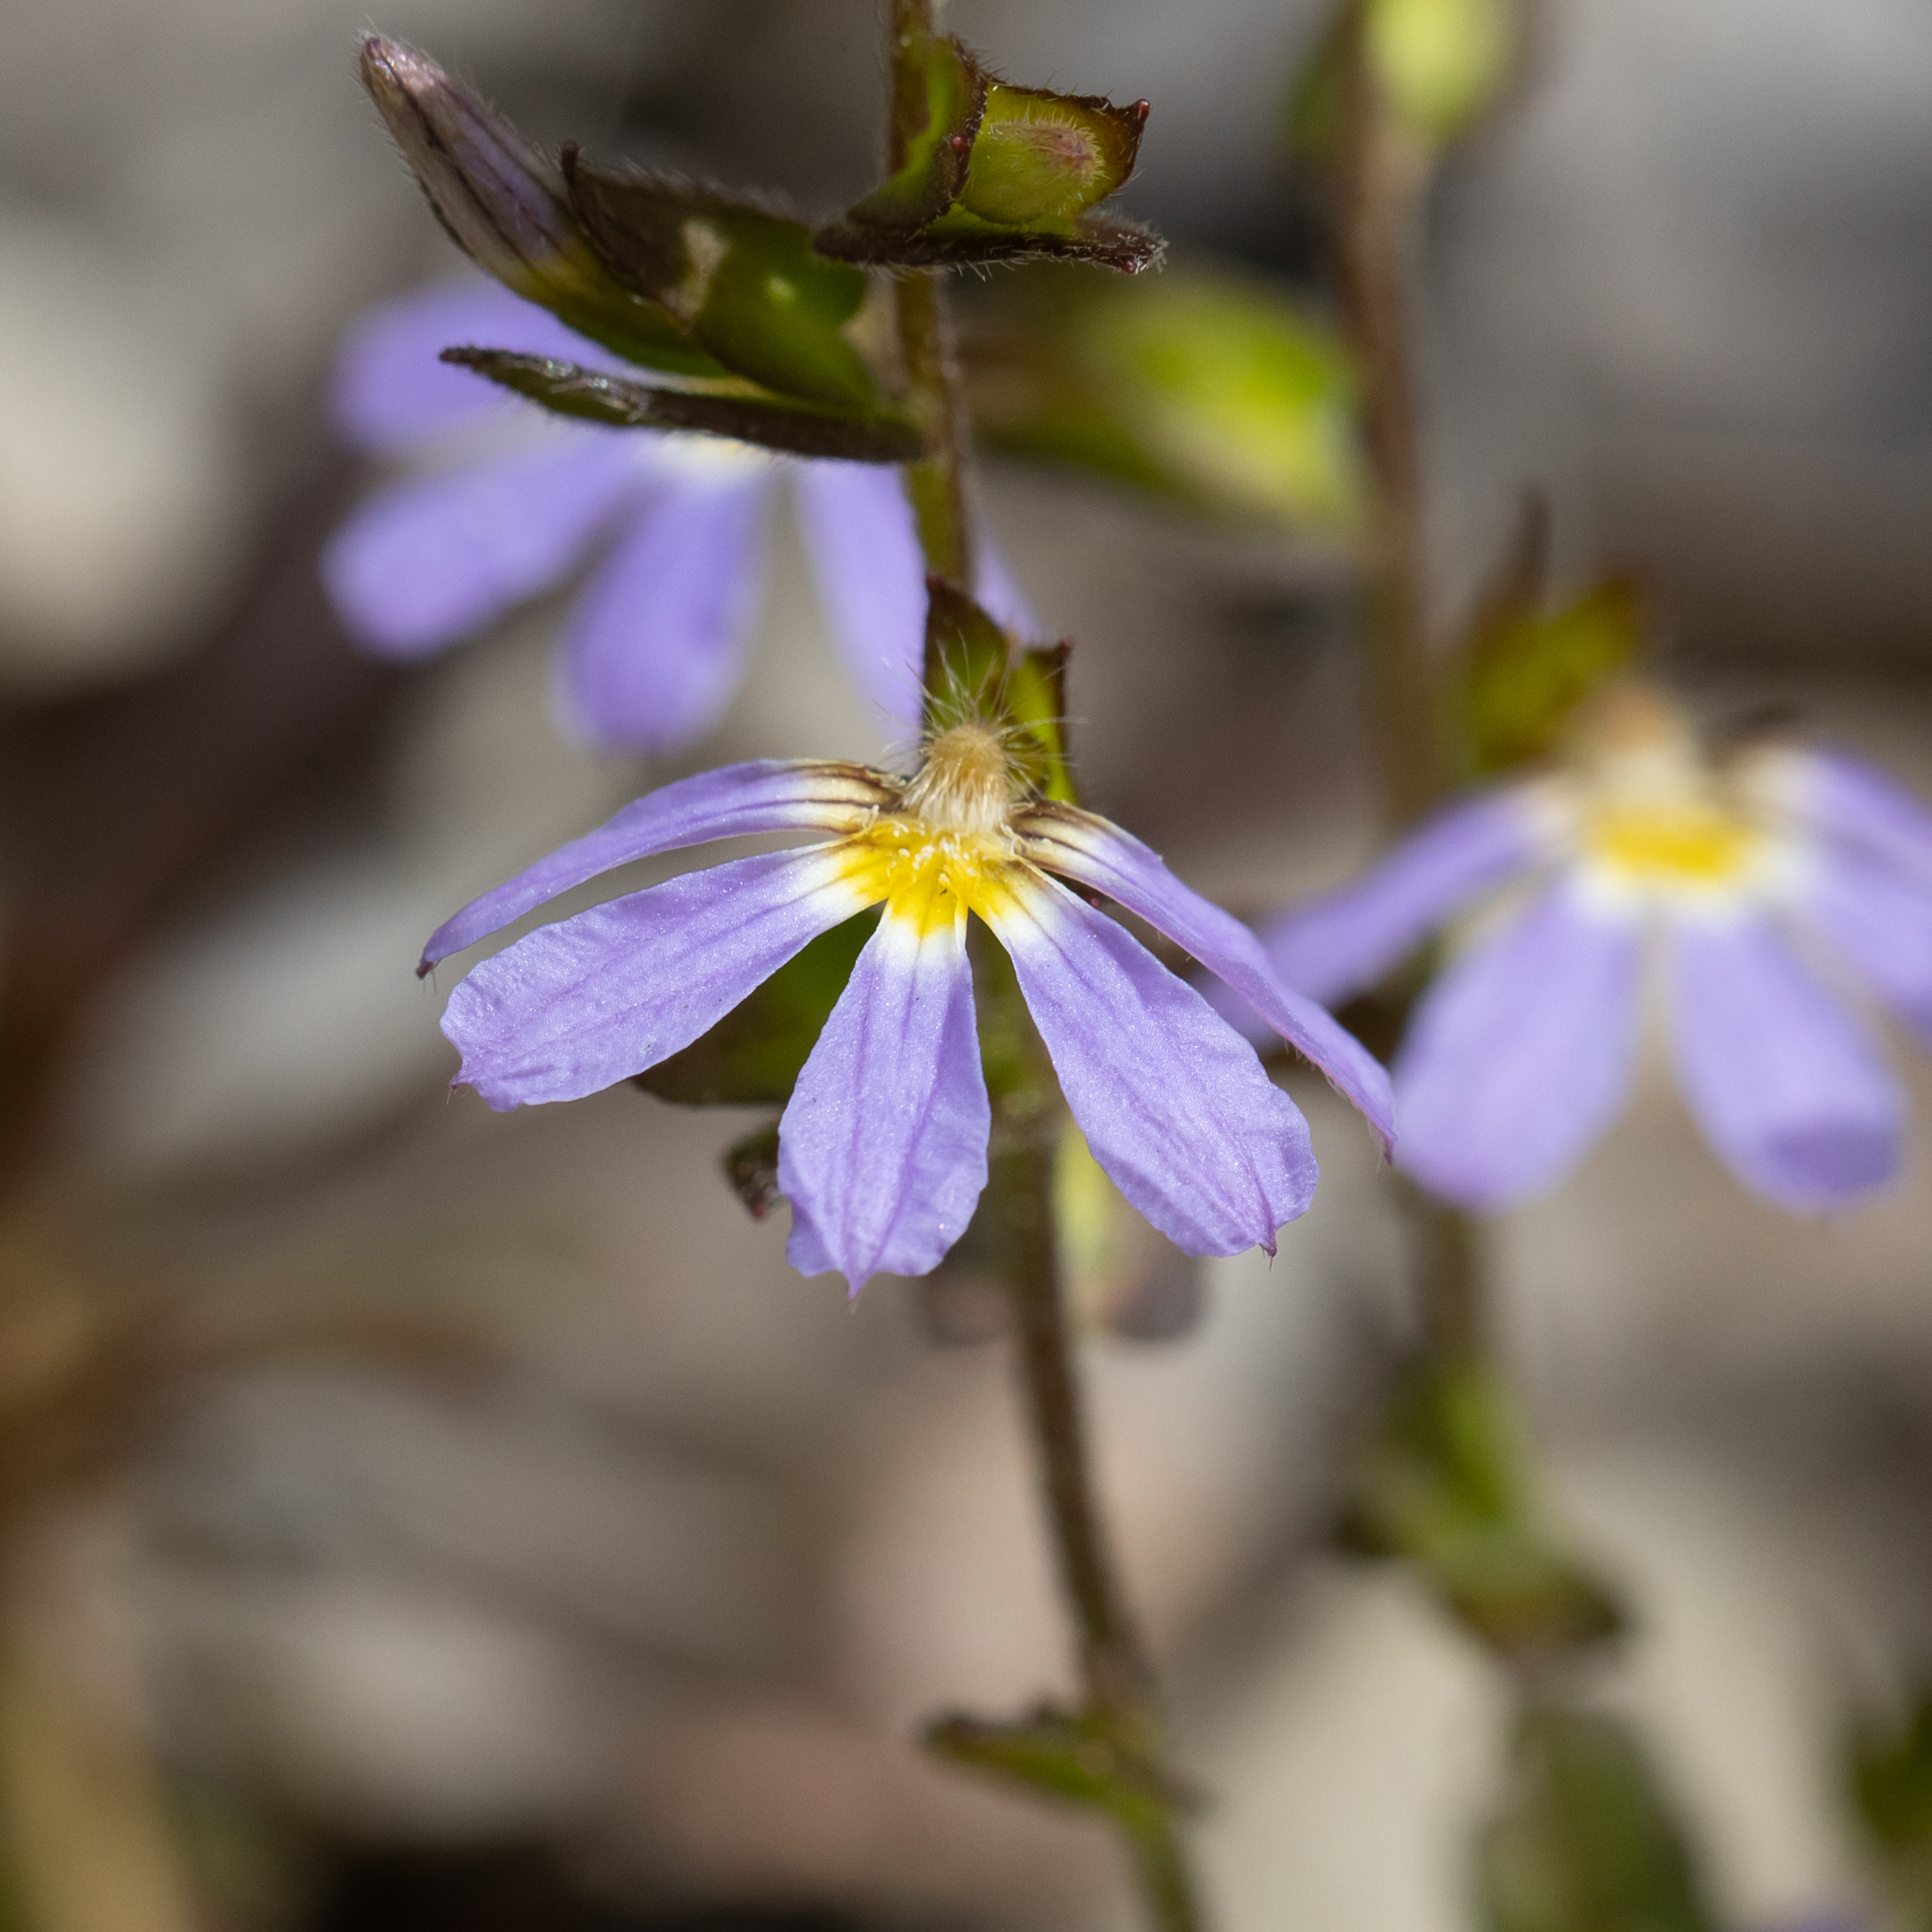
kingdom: Plantae
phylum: Tracheophyta
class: Magnoliopsida
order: Asterales
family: Goodeniaceae
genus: Scaevola
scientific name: Scaevola microphylla
